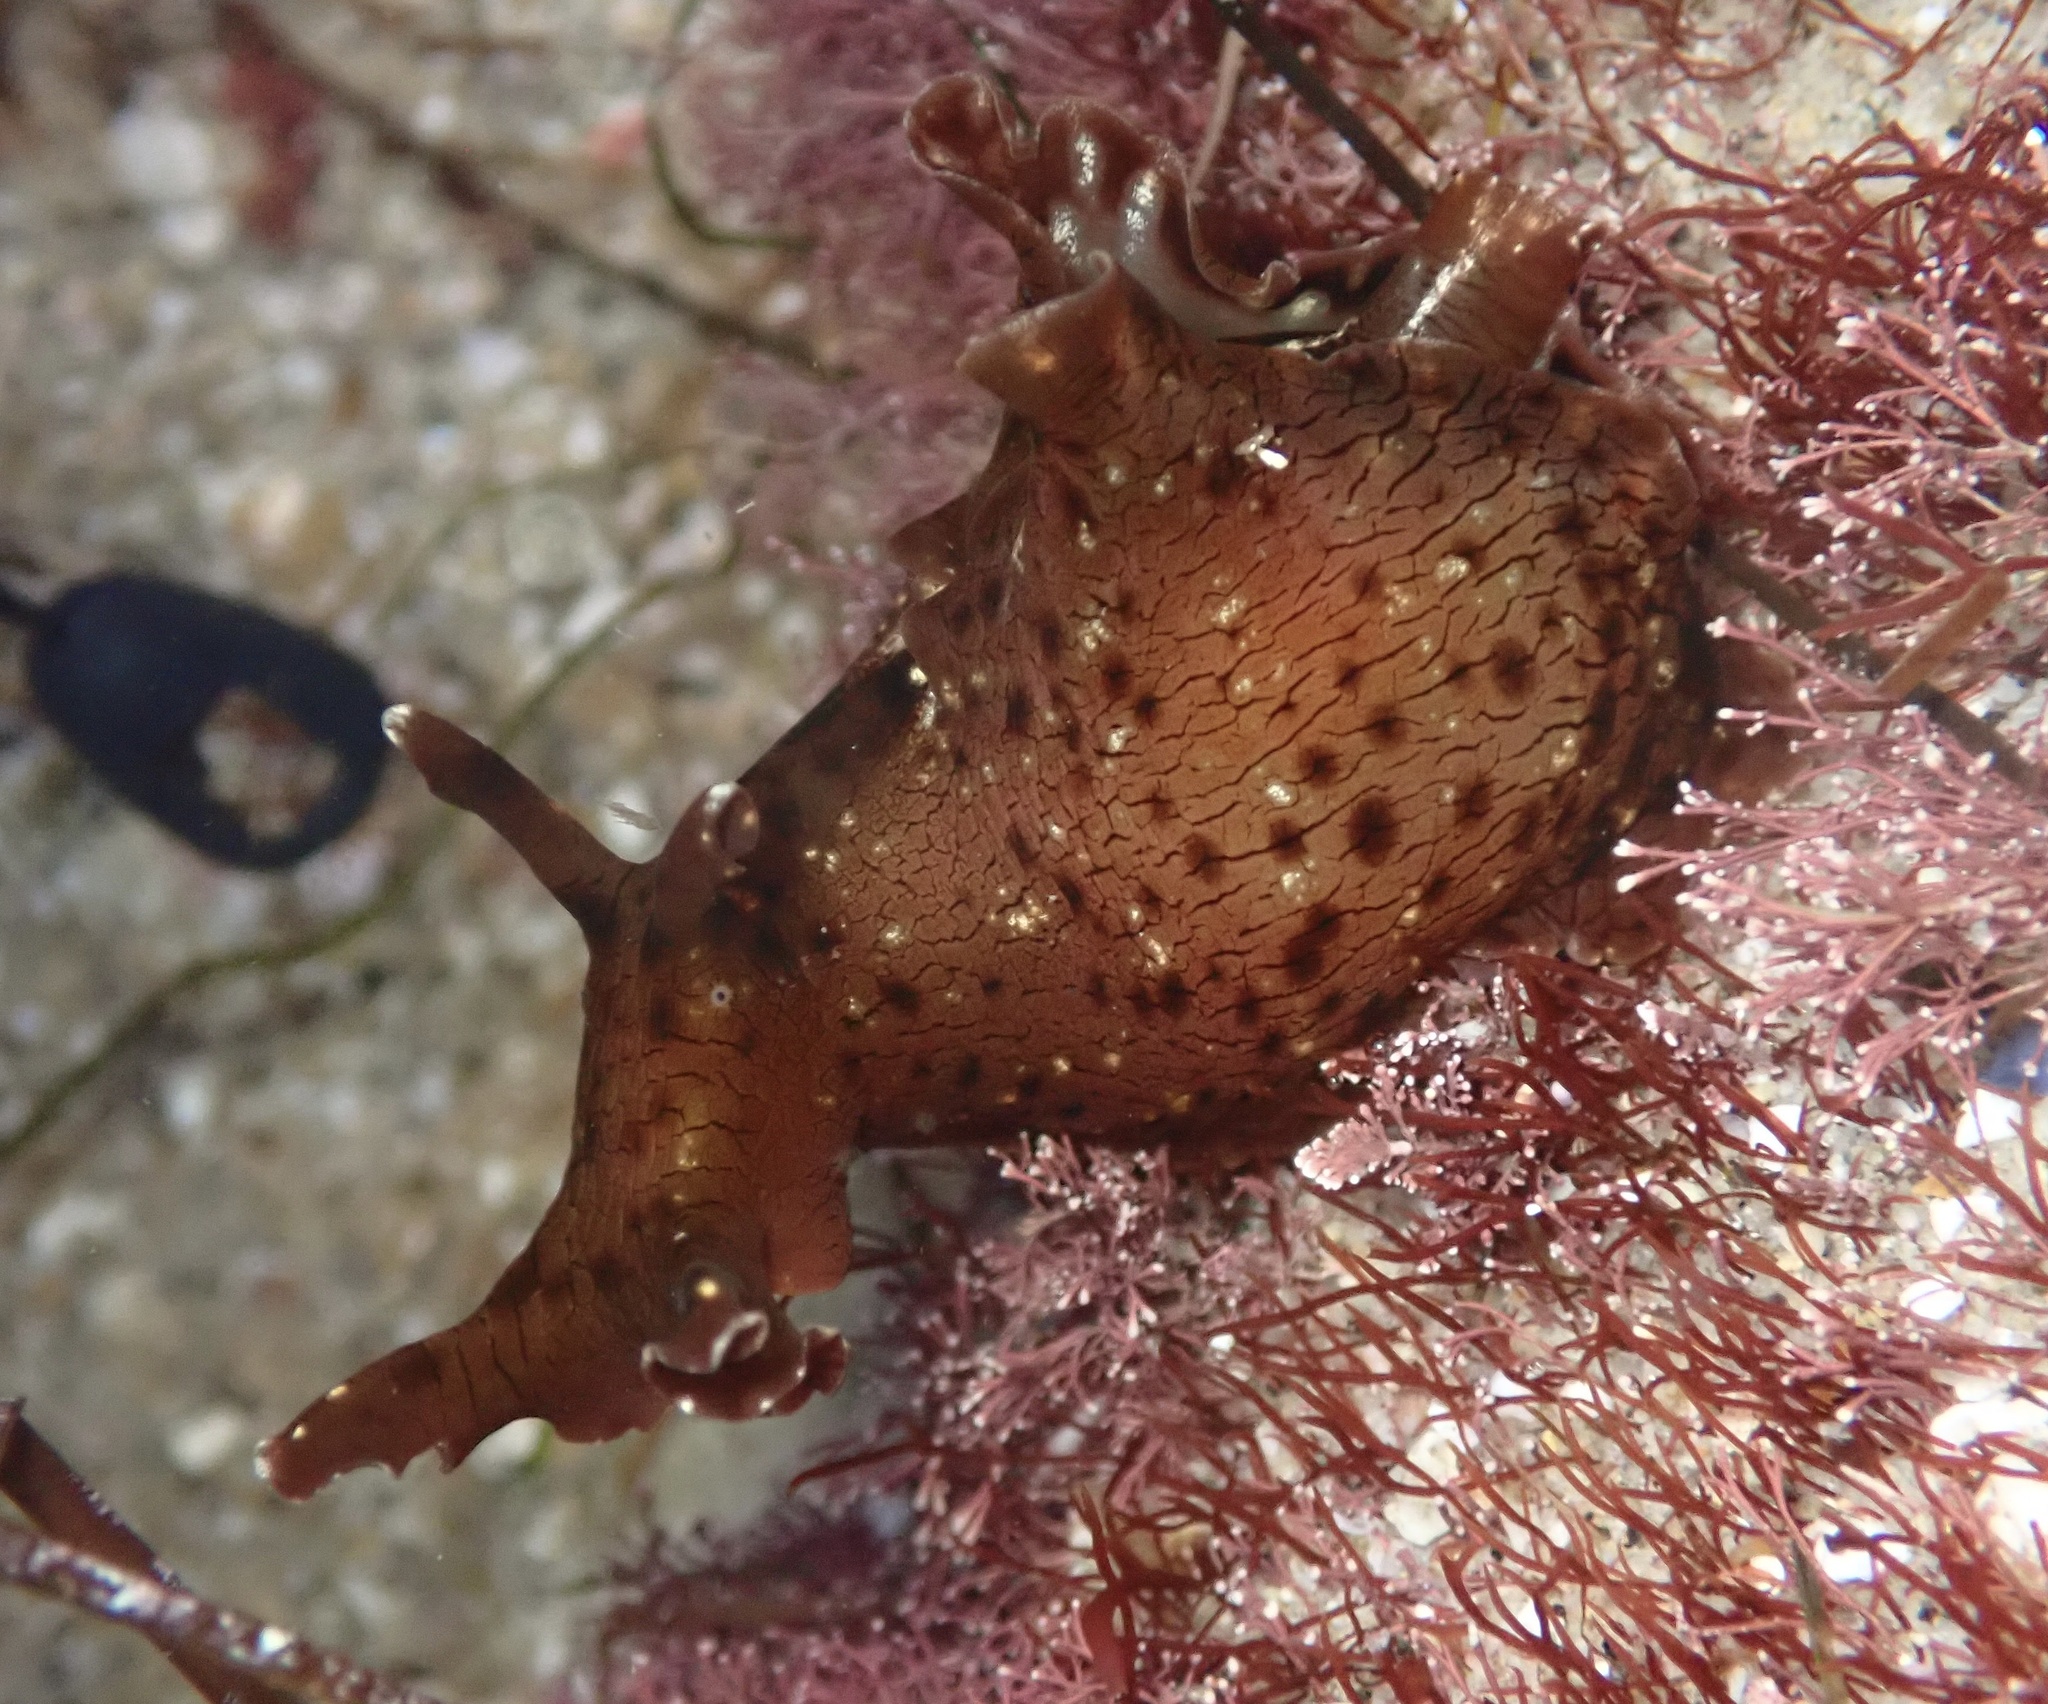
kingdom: Animalia
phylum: Mollusca
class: Gastropoda
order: Aplysiida
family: Aplysiidae
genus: Aplysia
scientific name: Aplysia californica
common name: California seahare
